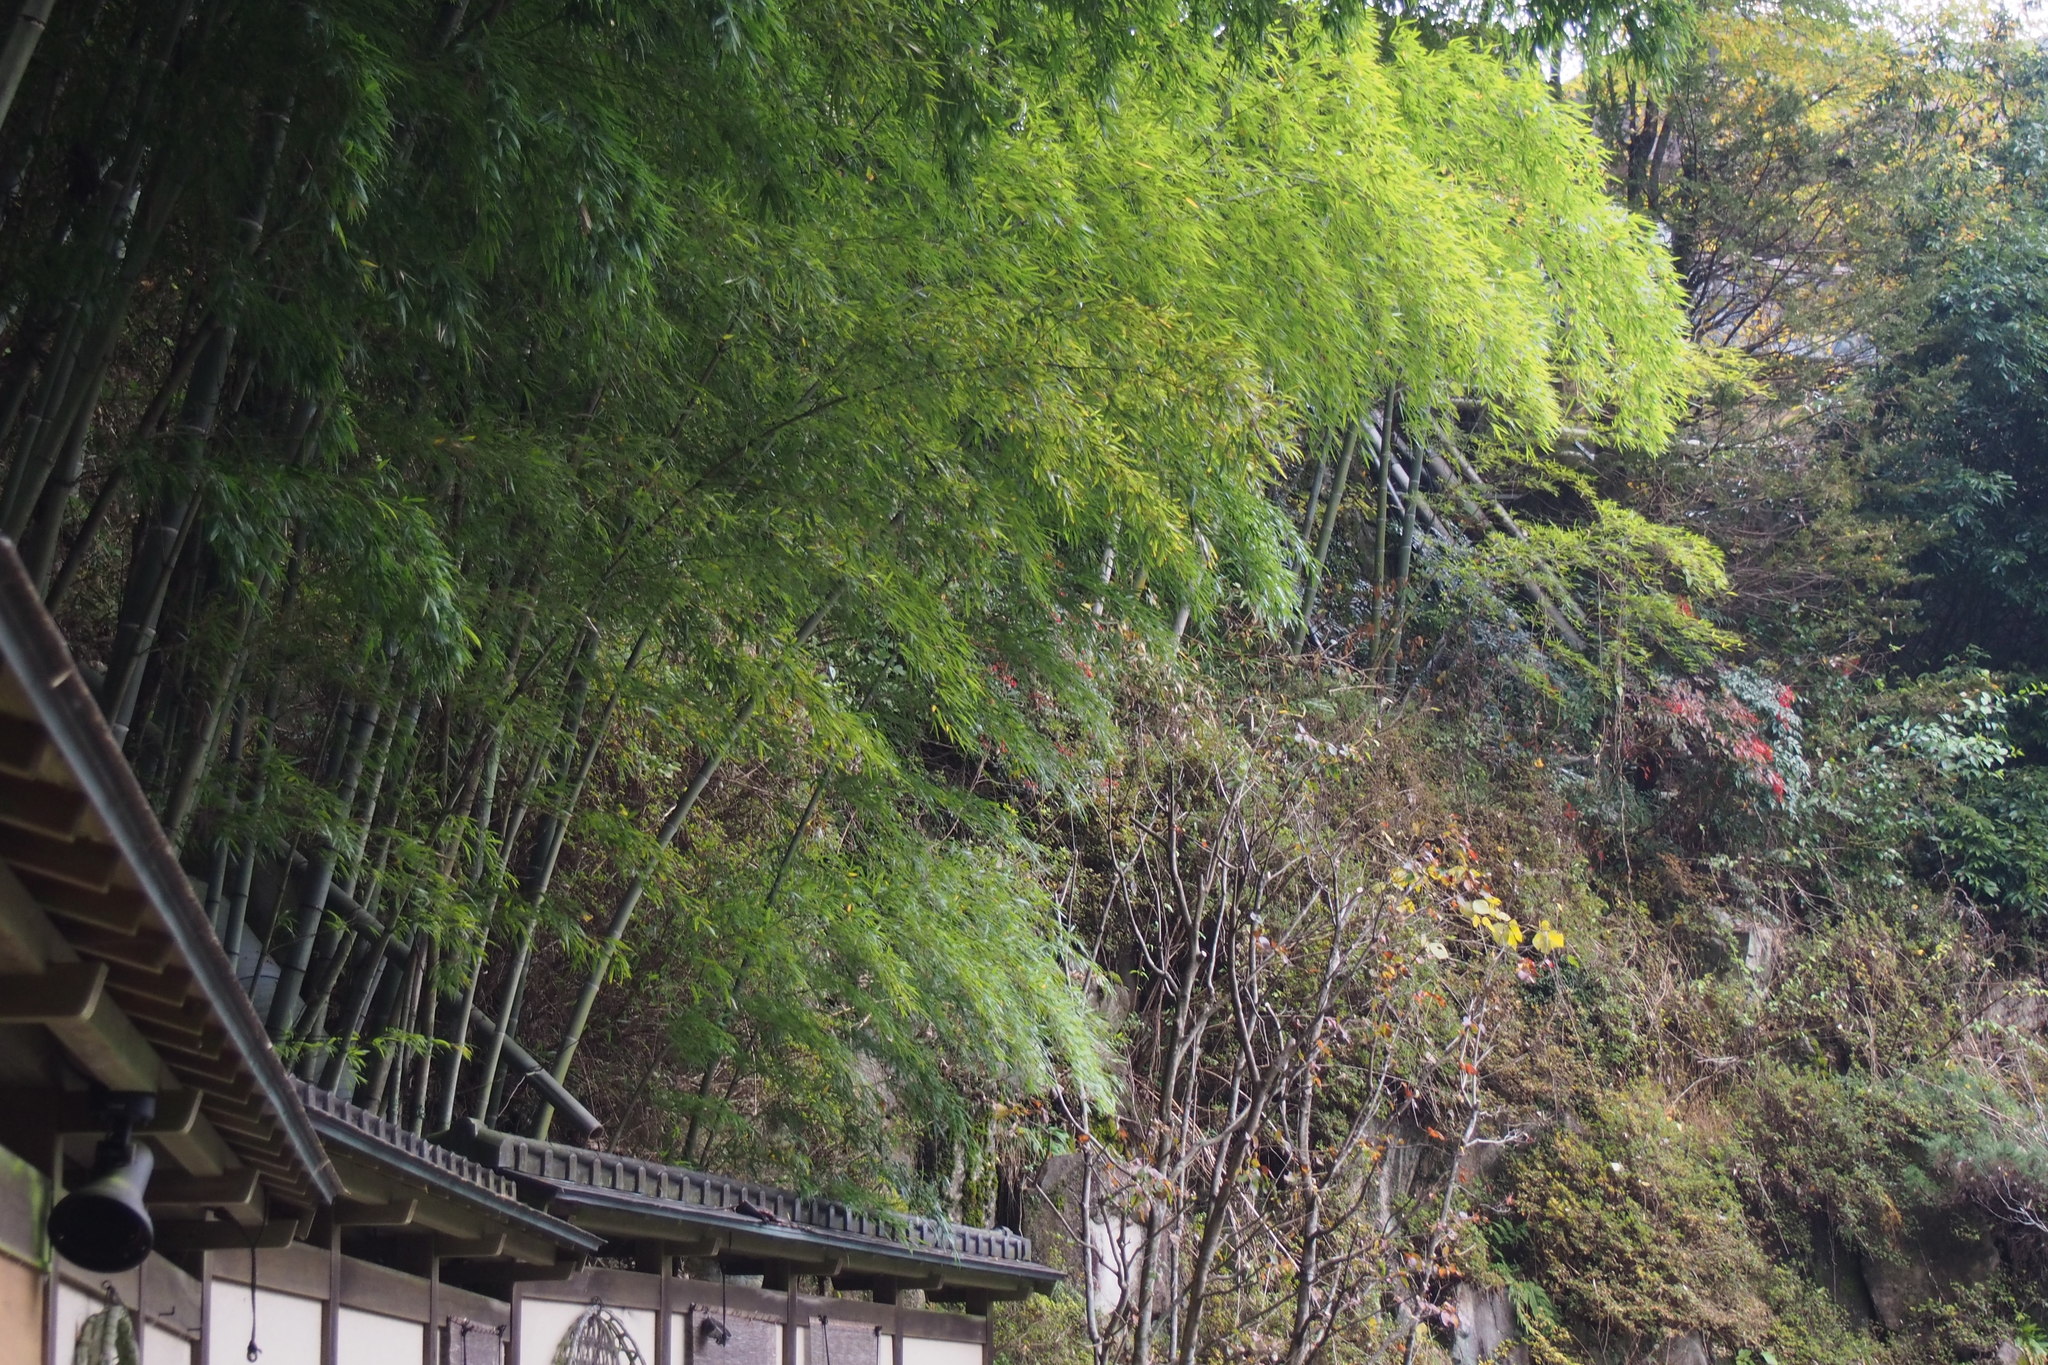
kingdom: Plantae
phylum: Tracheophyta
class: Liliopsida
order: Poales
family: Poaceae
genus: Phyllostachys
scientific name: Phyllostachys edulis
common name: Tortoise shell bamboo
